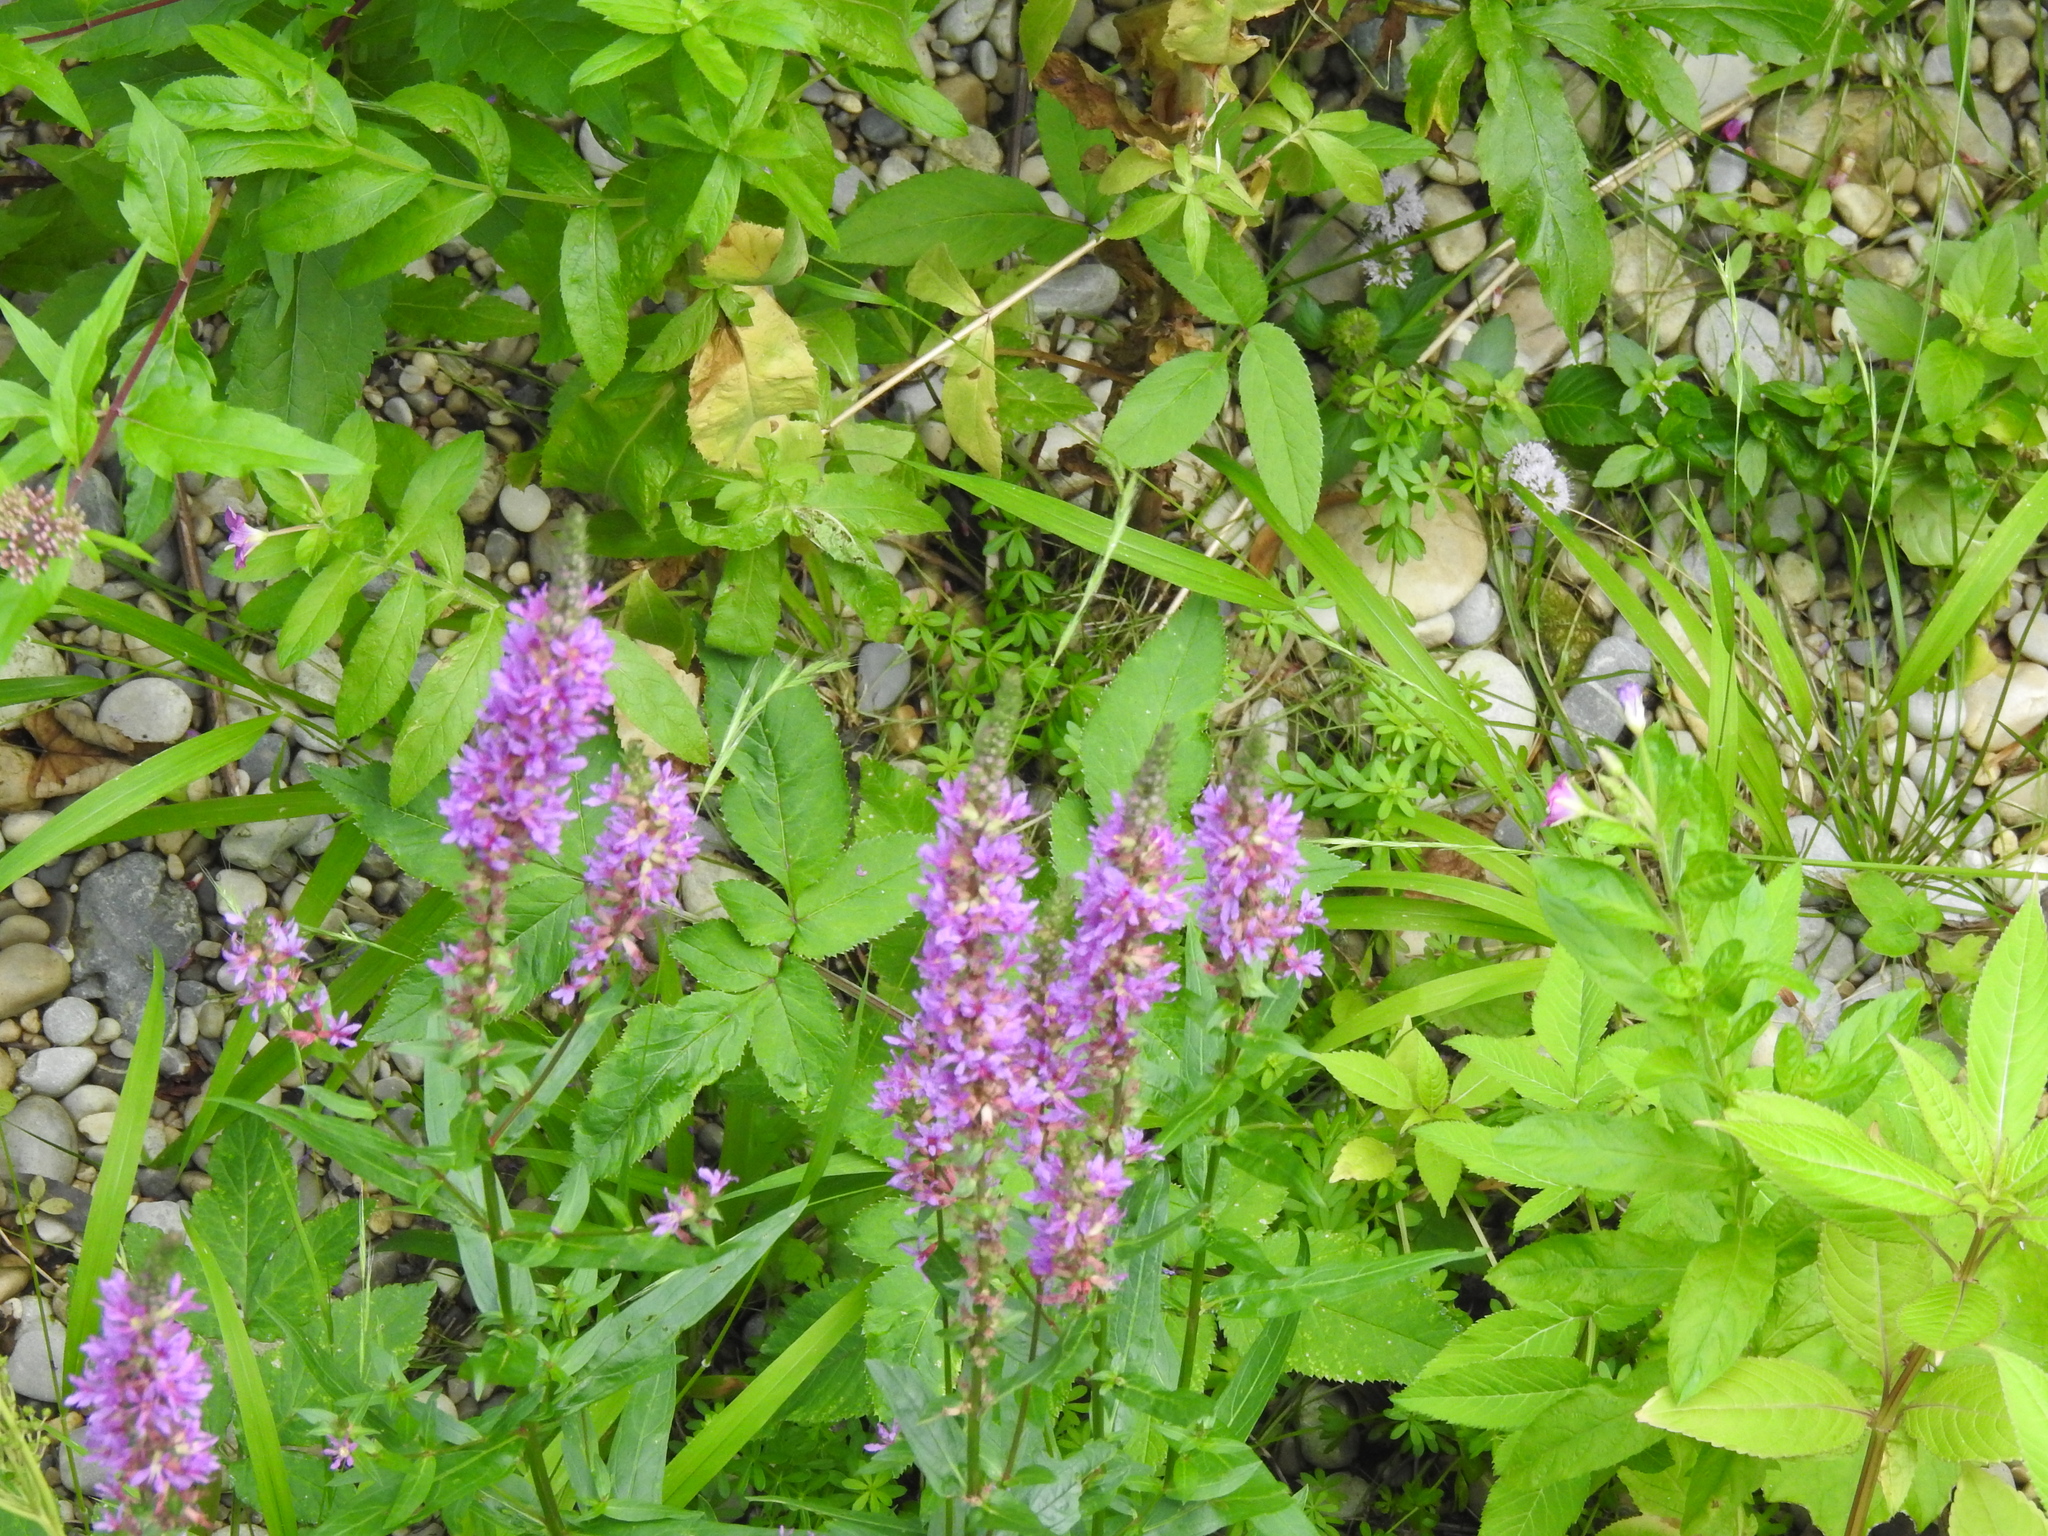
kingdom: Plantae
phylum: Tracheophyta
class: Magnoliopsida
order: Myrtales
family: Lythraceae
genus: Lythrum
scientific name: Lythrum salicaria
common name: Purple loosestrife
